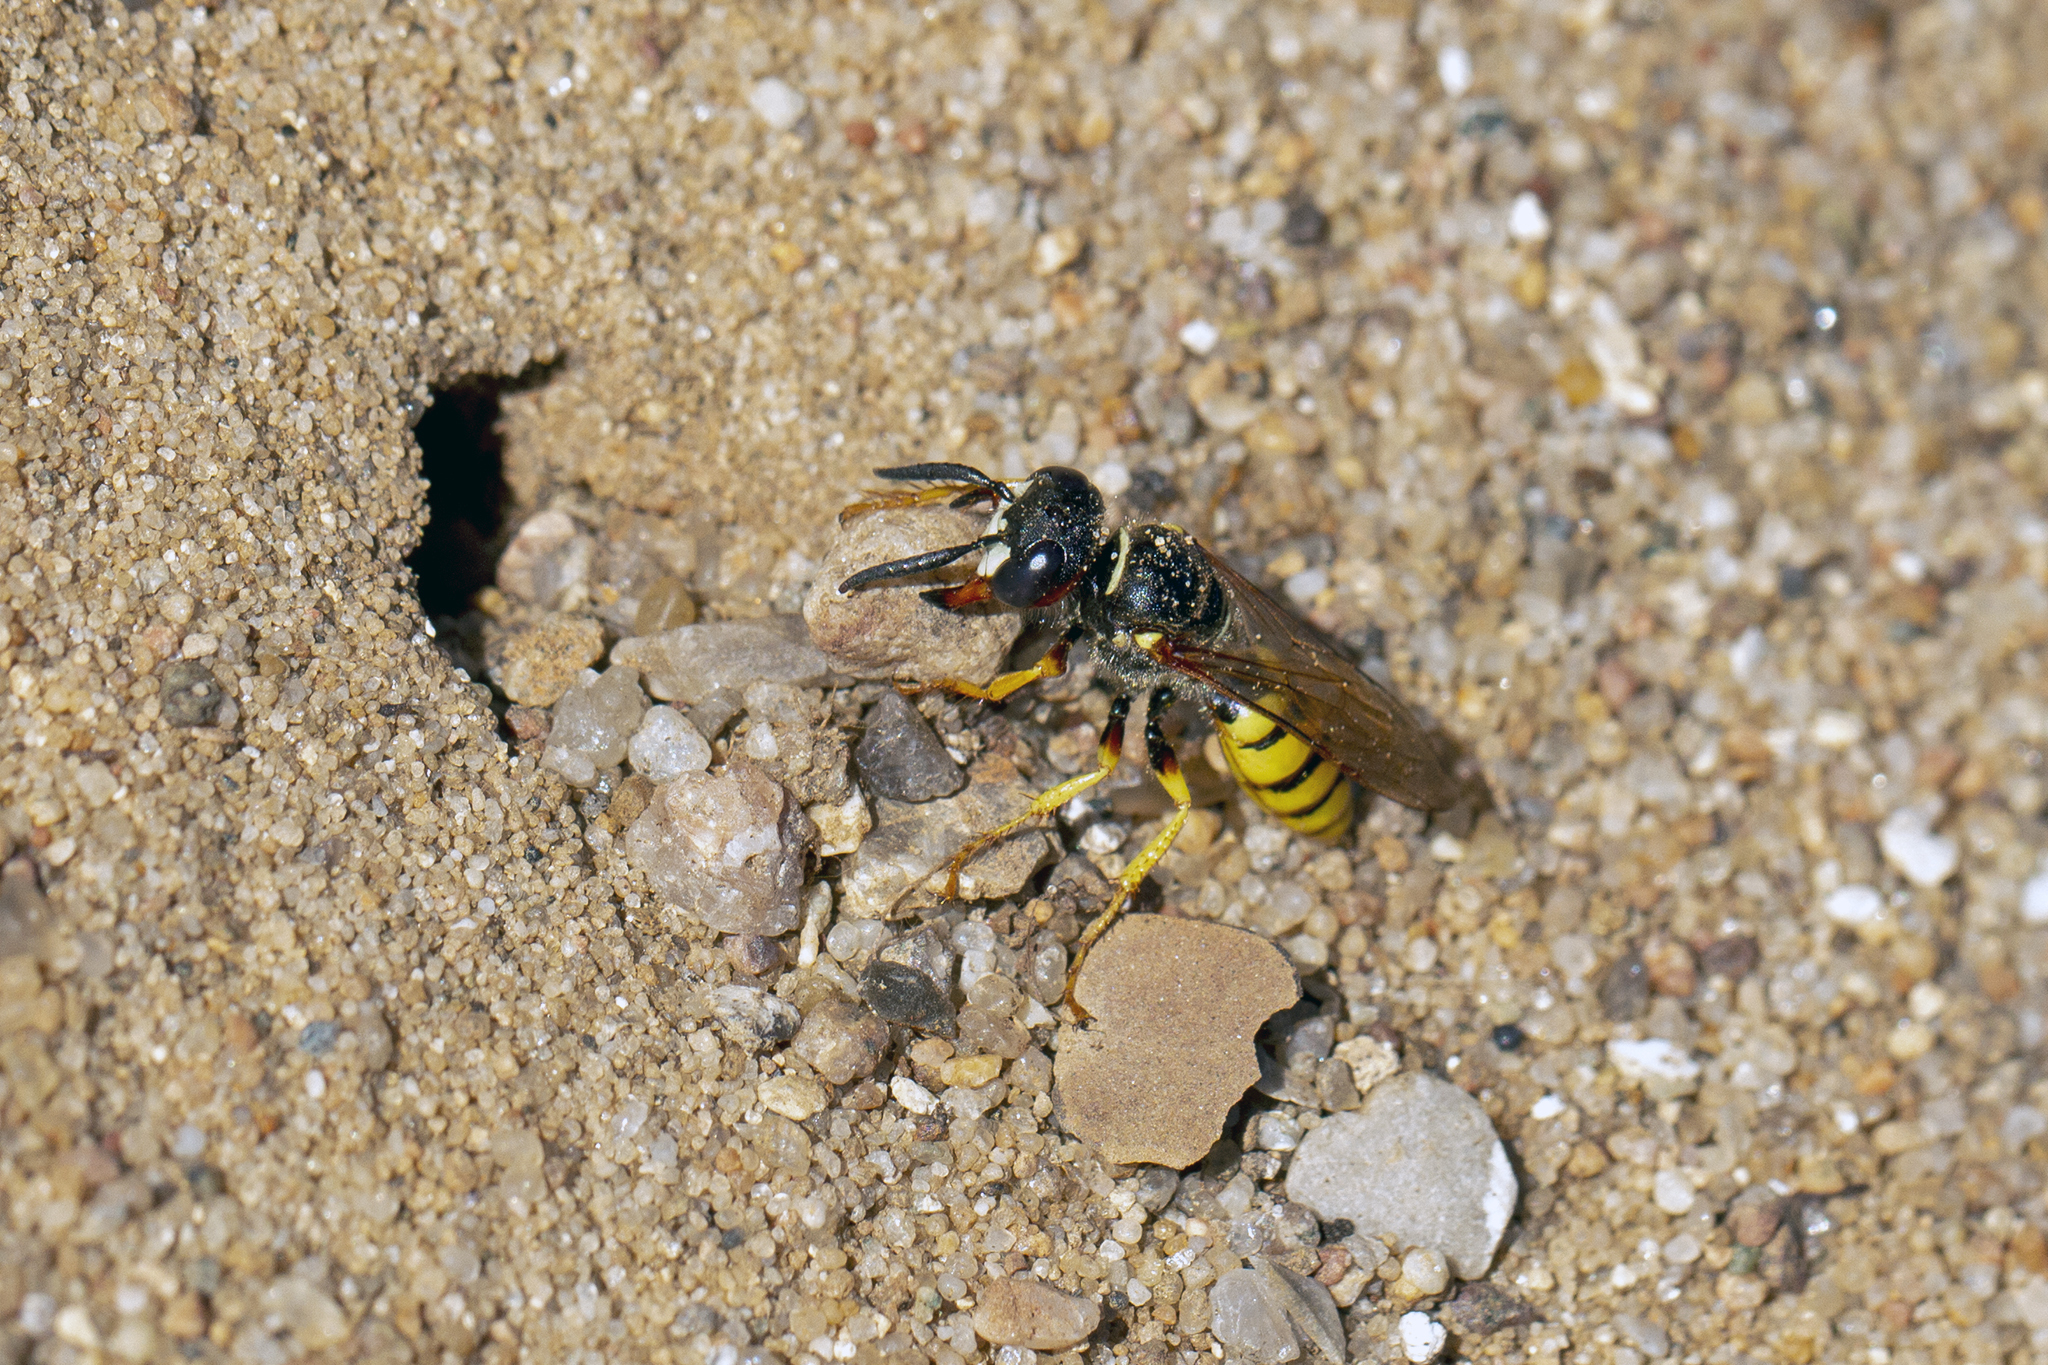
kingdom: Animalia
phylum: Arthropoda
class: Insecta
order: Hymenoptera
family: Crabronidae
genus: Philanthus
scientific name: Philanthus triangulum
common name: Bee wolf
